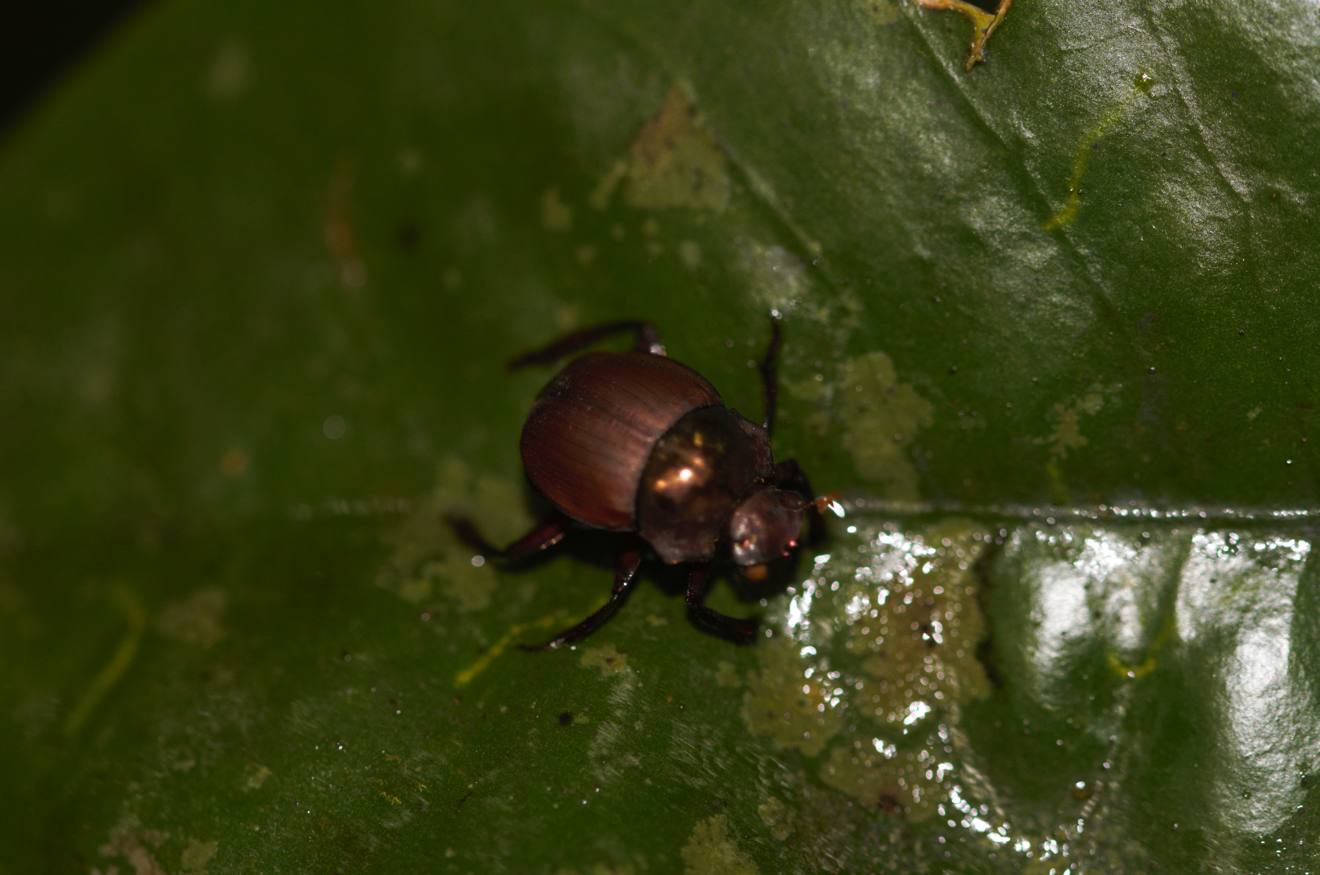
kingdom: Animalia
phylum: Arthropoda
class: Insecta
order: Coleoptera
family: Scarabaeidae
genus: Hansreia
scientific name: Hansreia affinis
